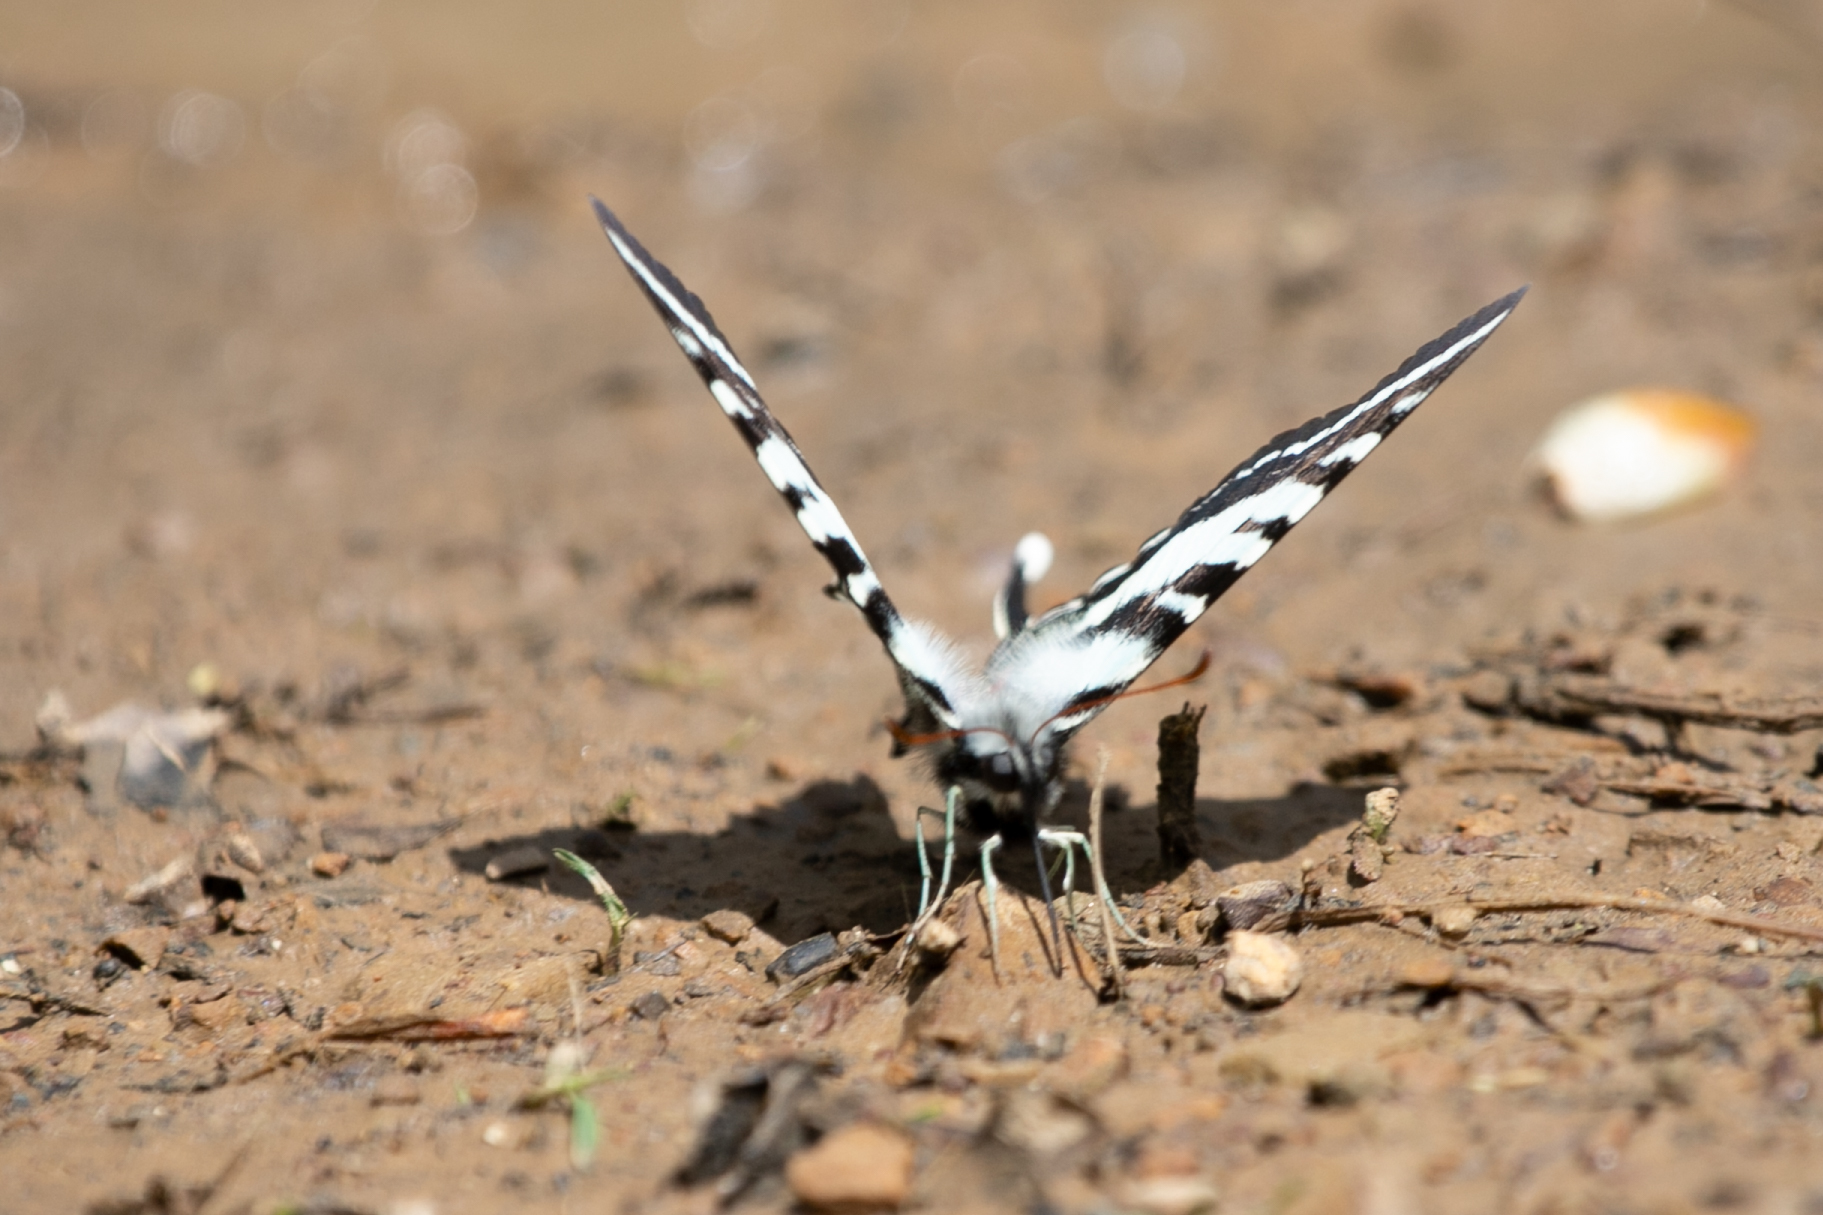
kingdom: Animalia
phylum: Arthropoda
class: Insecta
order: Lepidoptera
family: Papilionidae
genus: Protographium
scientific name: Protographium marcellus
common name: Zebra swallowtail
